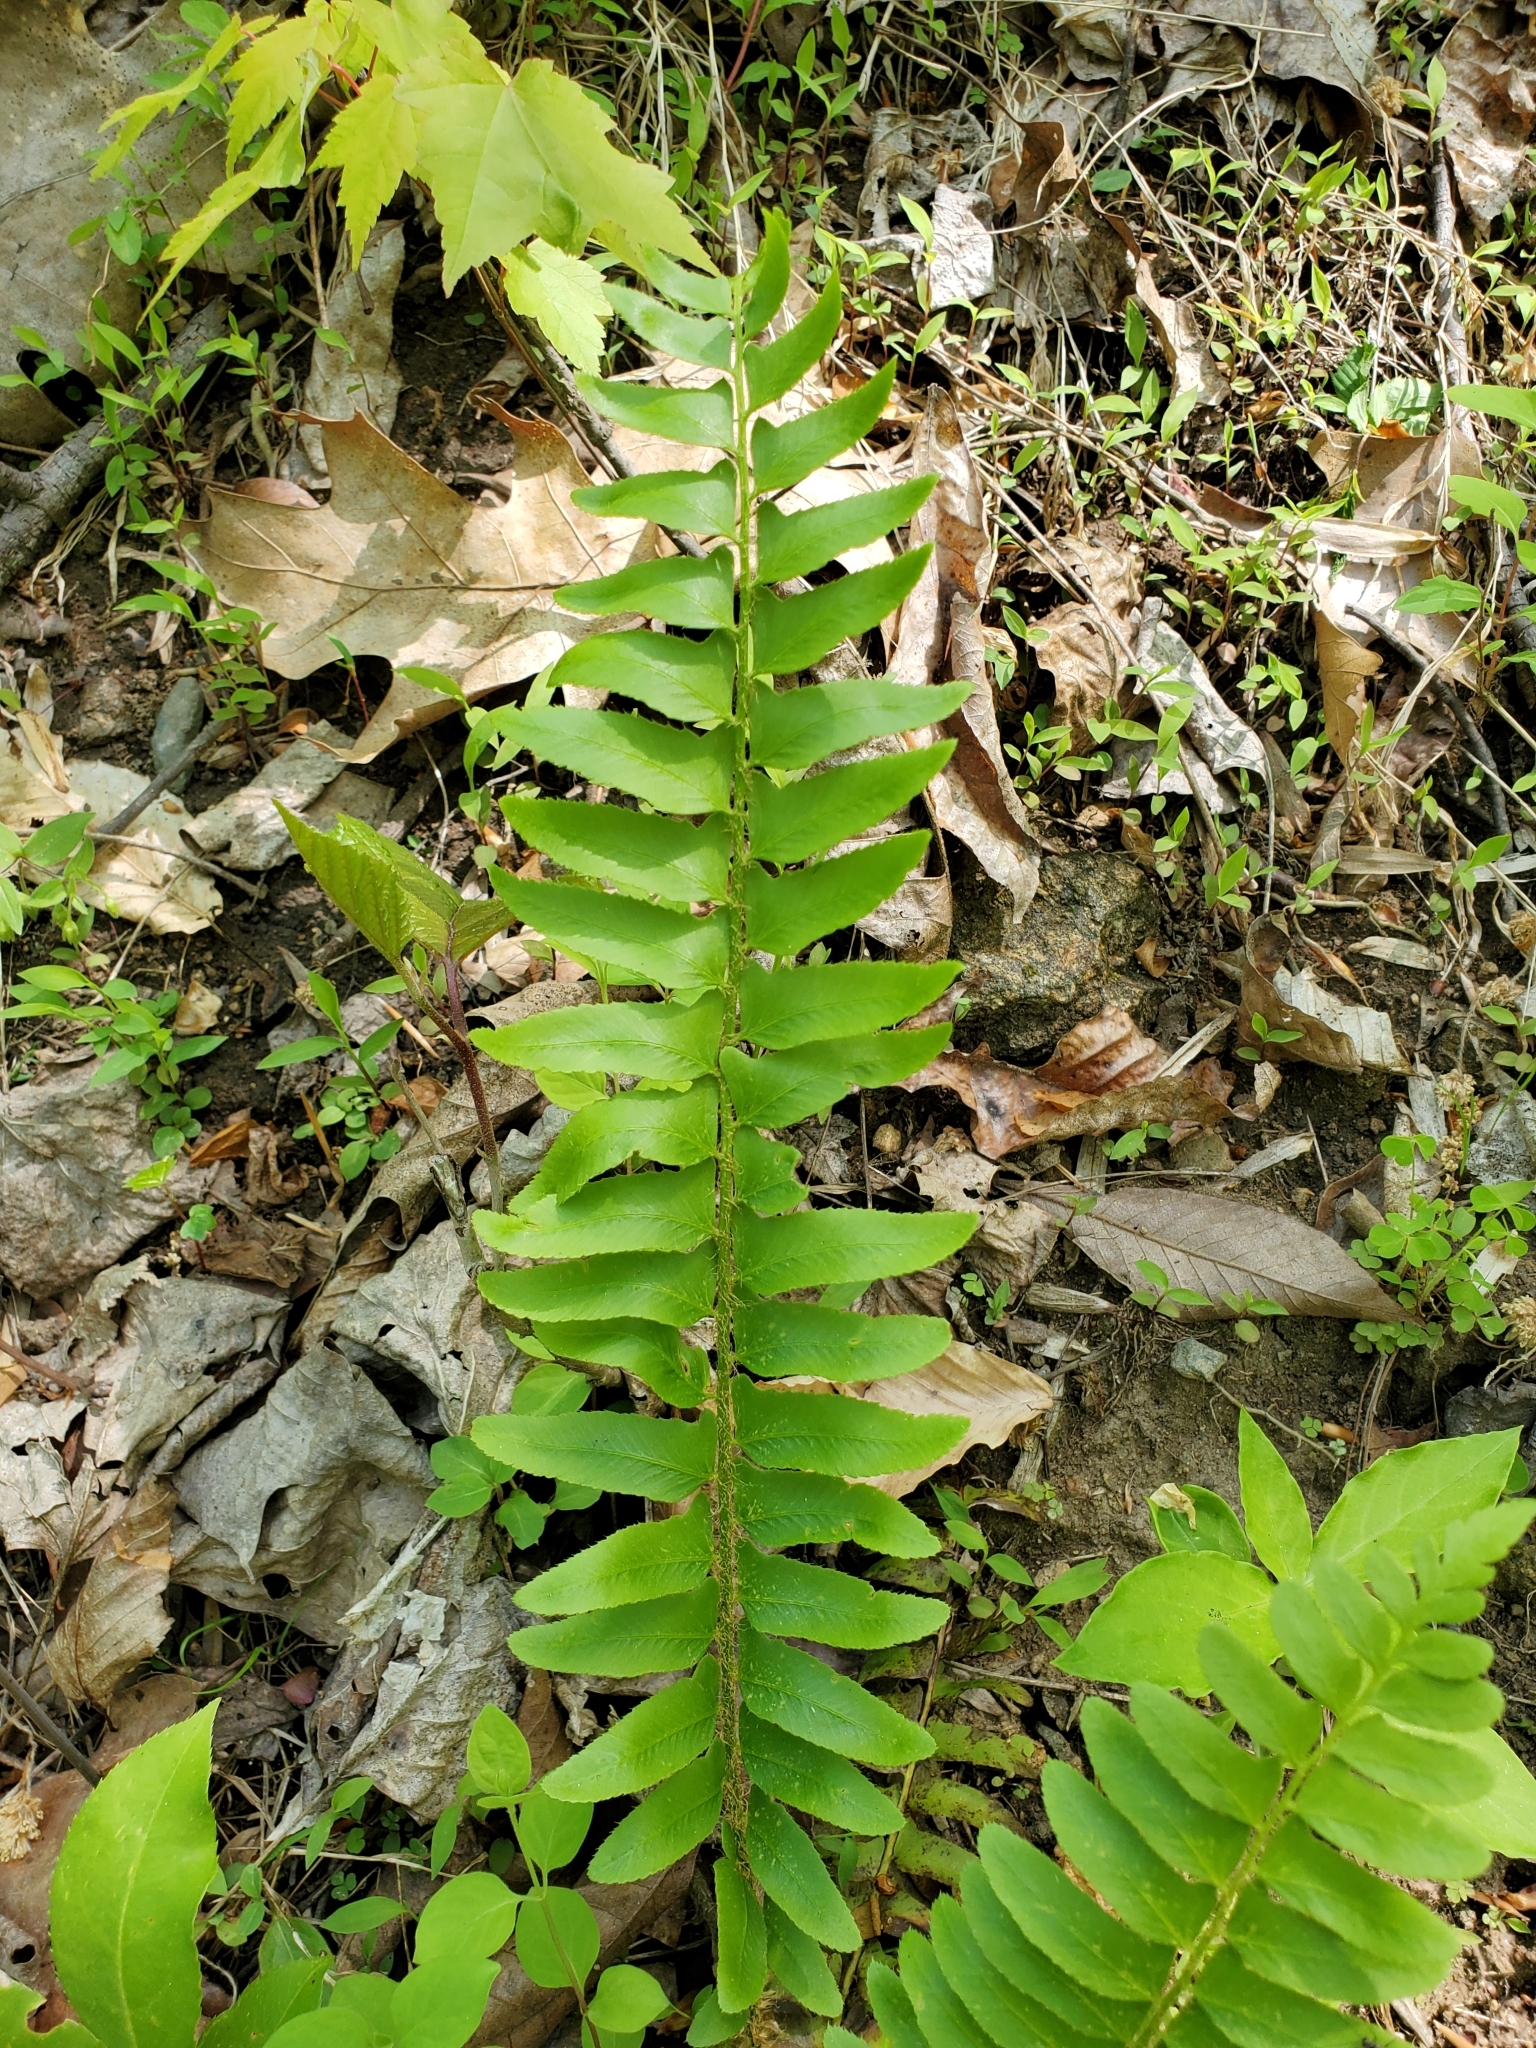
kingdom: Plantae
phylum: Tracheophyta
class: Polypodiopsida
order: Polypodiales
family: Dryopteridaceae
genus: Polystichum
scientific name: Polystichum acrostichoides
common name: Christmas fern
